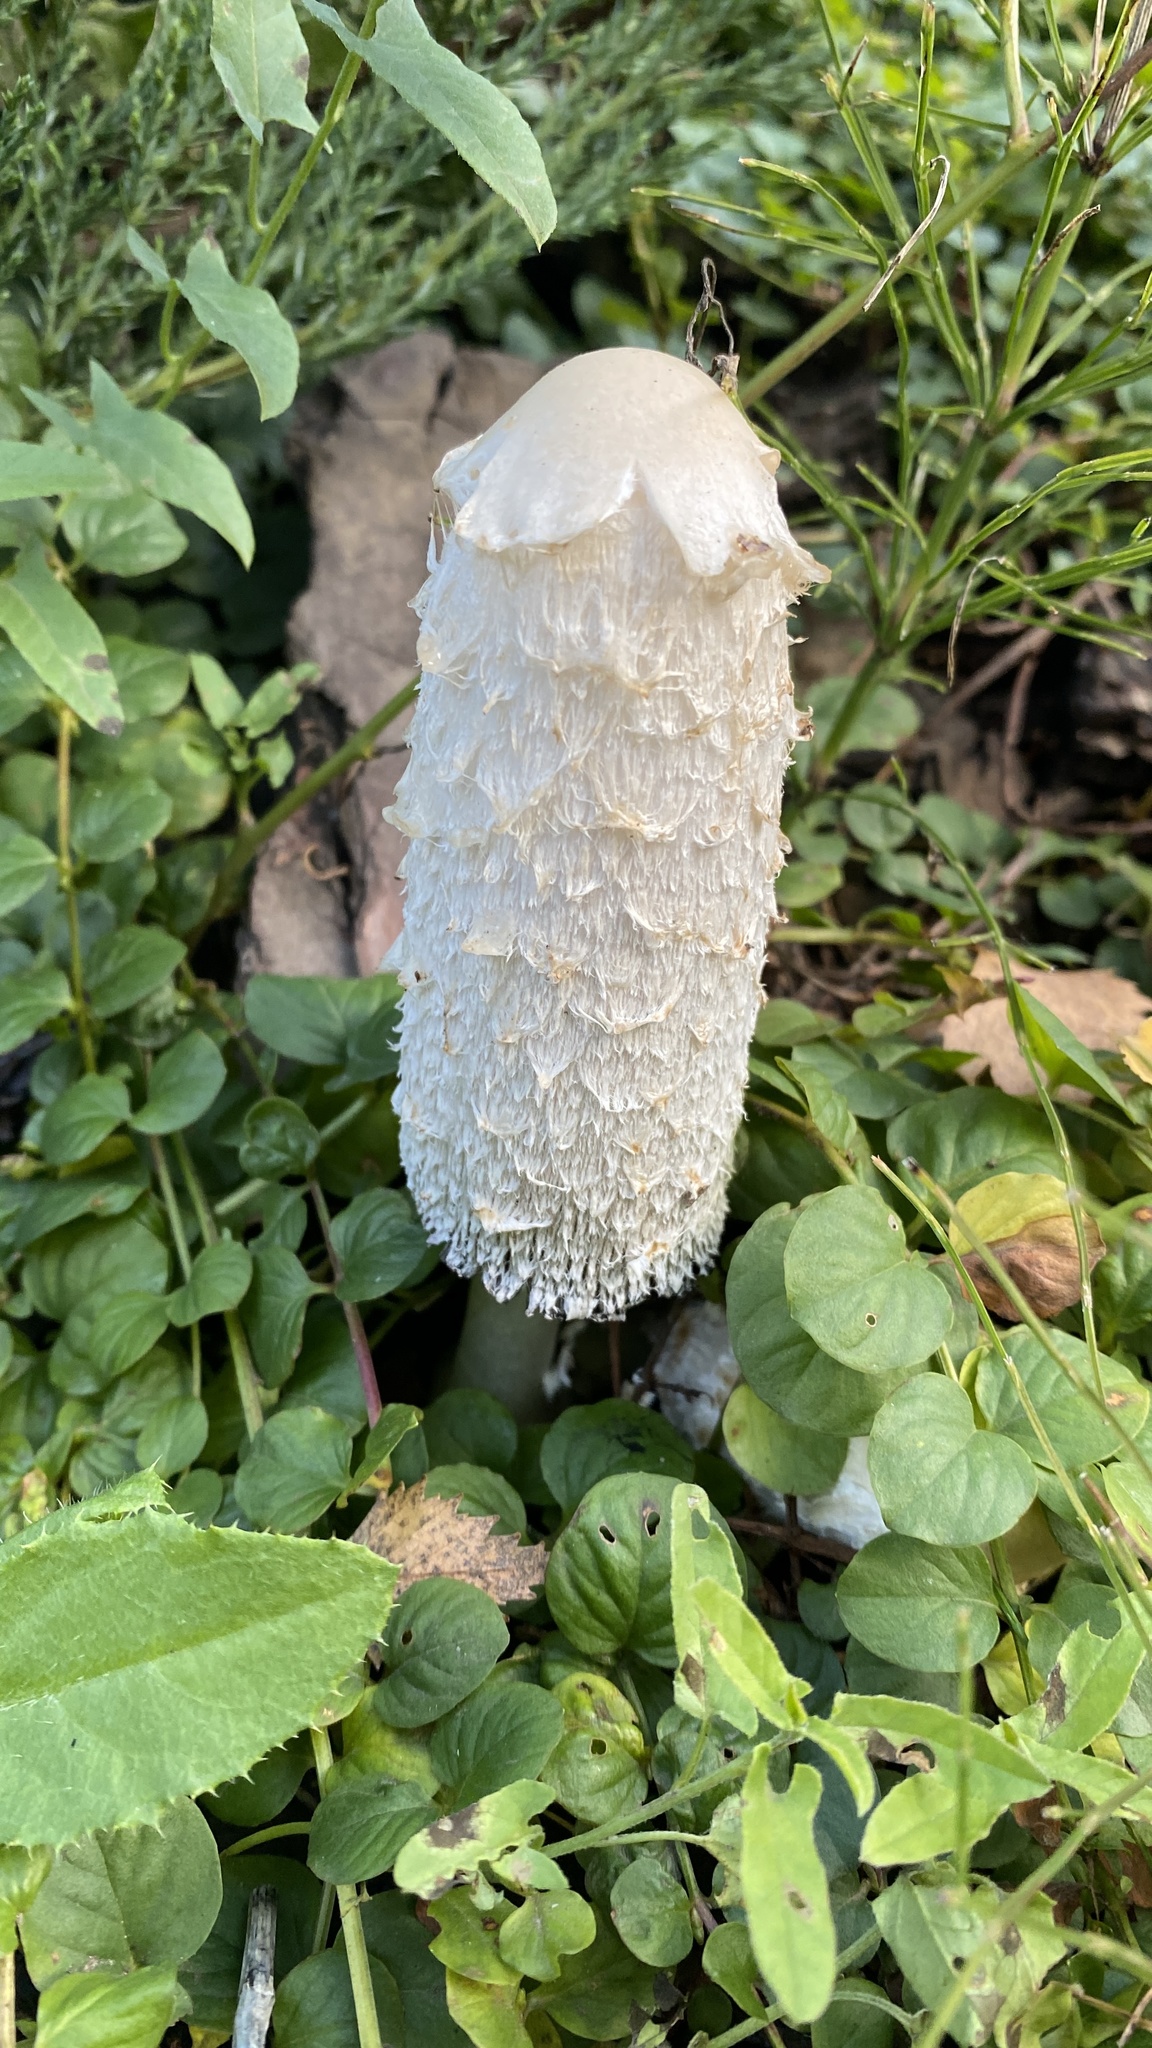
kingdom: Fungi
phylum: Basidiomycota
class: Agaricomycetes
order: Agaricales
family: Agaricaceae
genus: Coprinus
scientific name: Coprinus comatus
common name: Lawyer's wig
